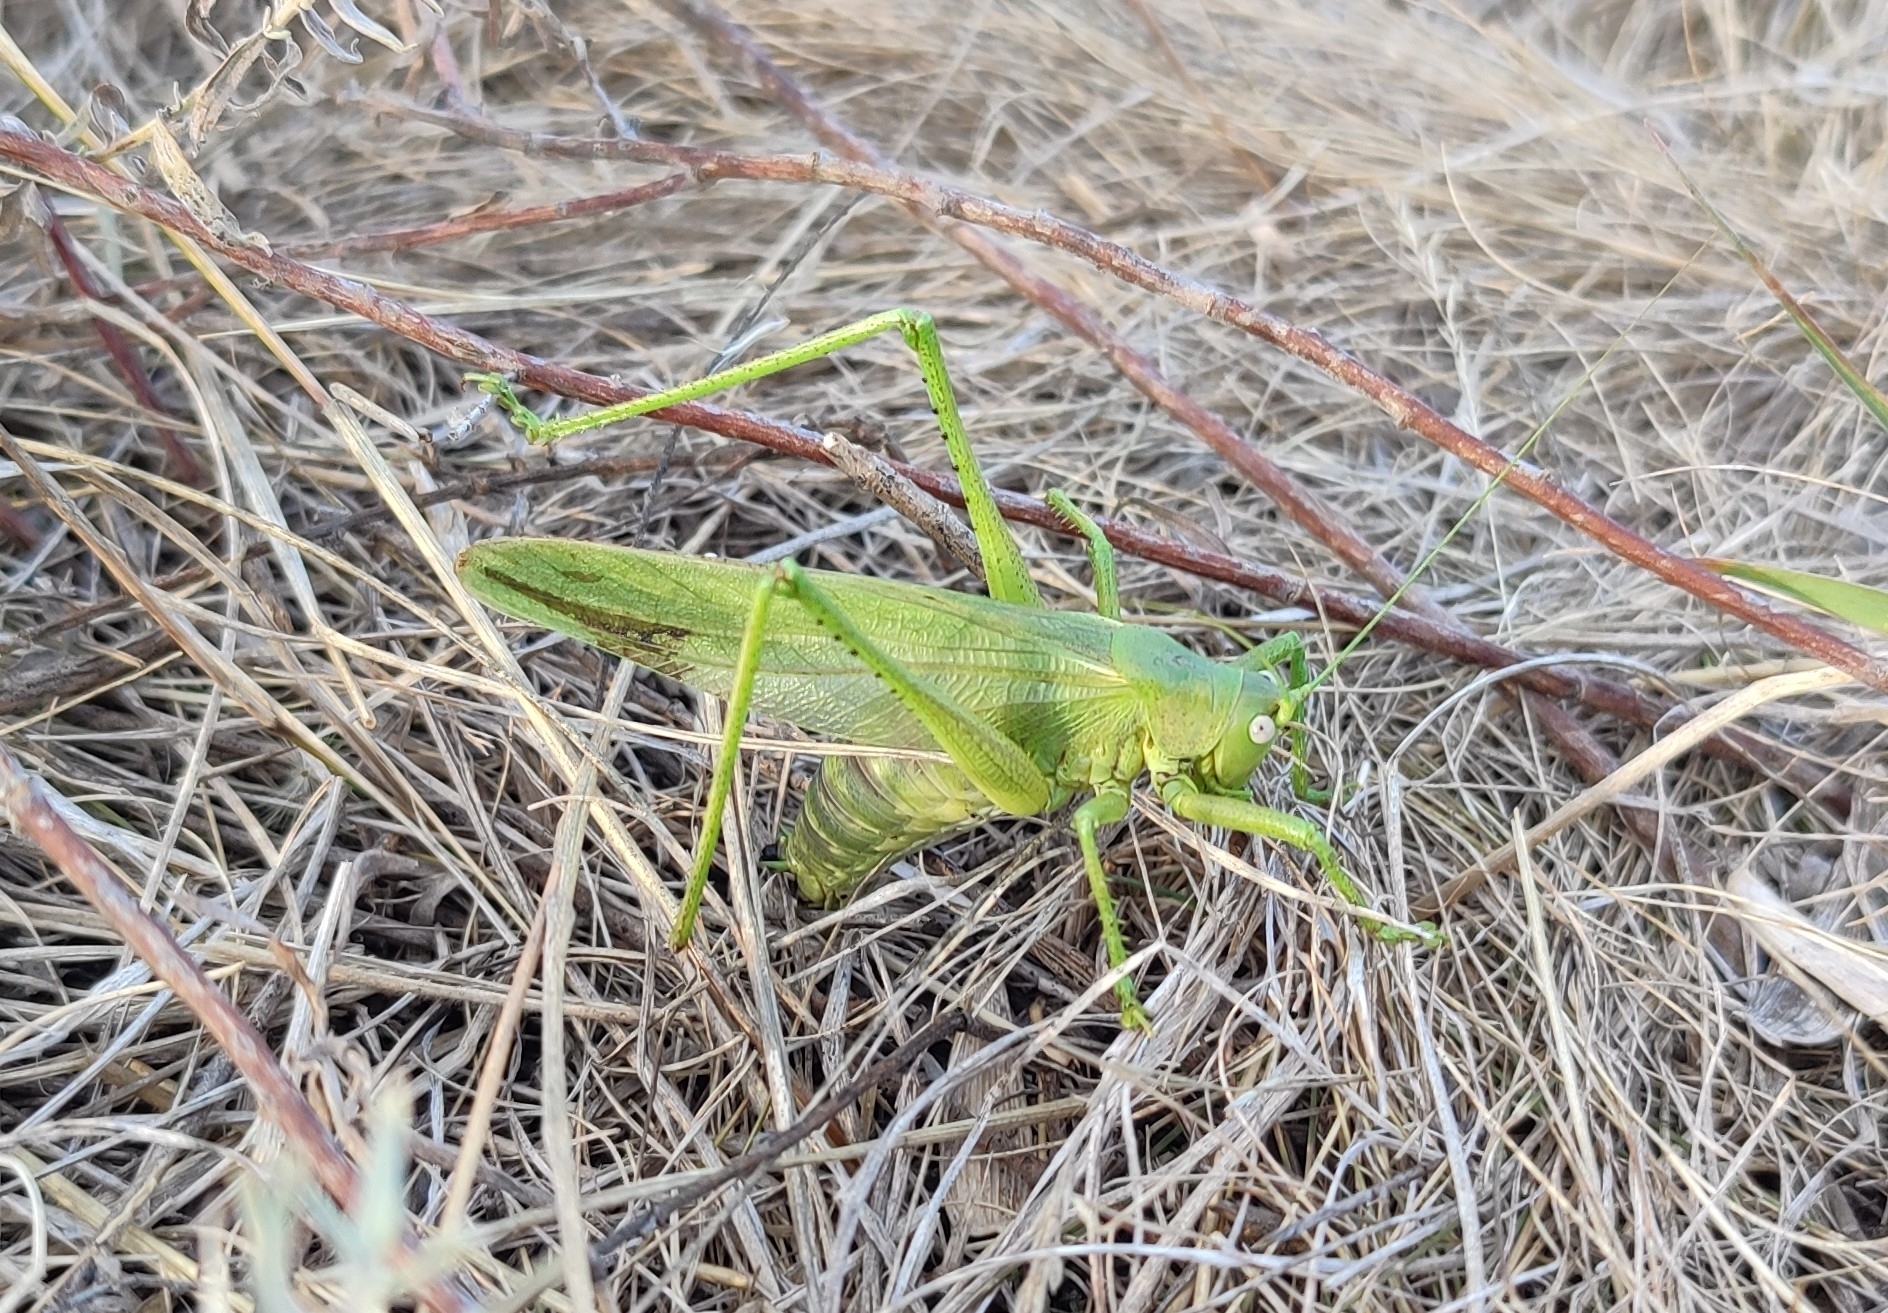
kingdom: Animalia
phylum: Arthropoda
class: Insecta
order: Orthoptera
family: Tettigoniidae
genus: Tettigonia
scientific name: Tettigonia caudata
